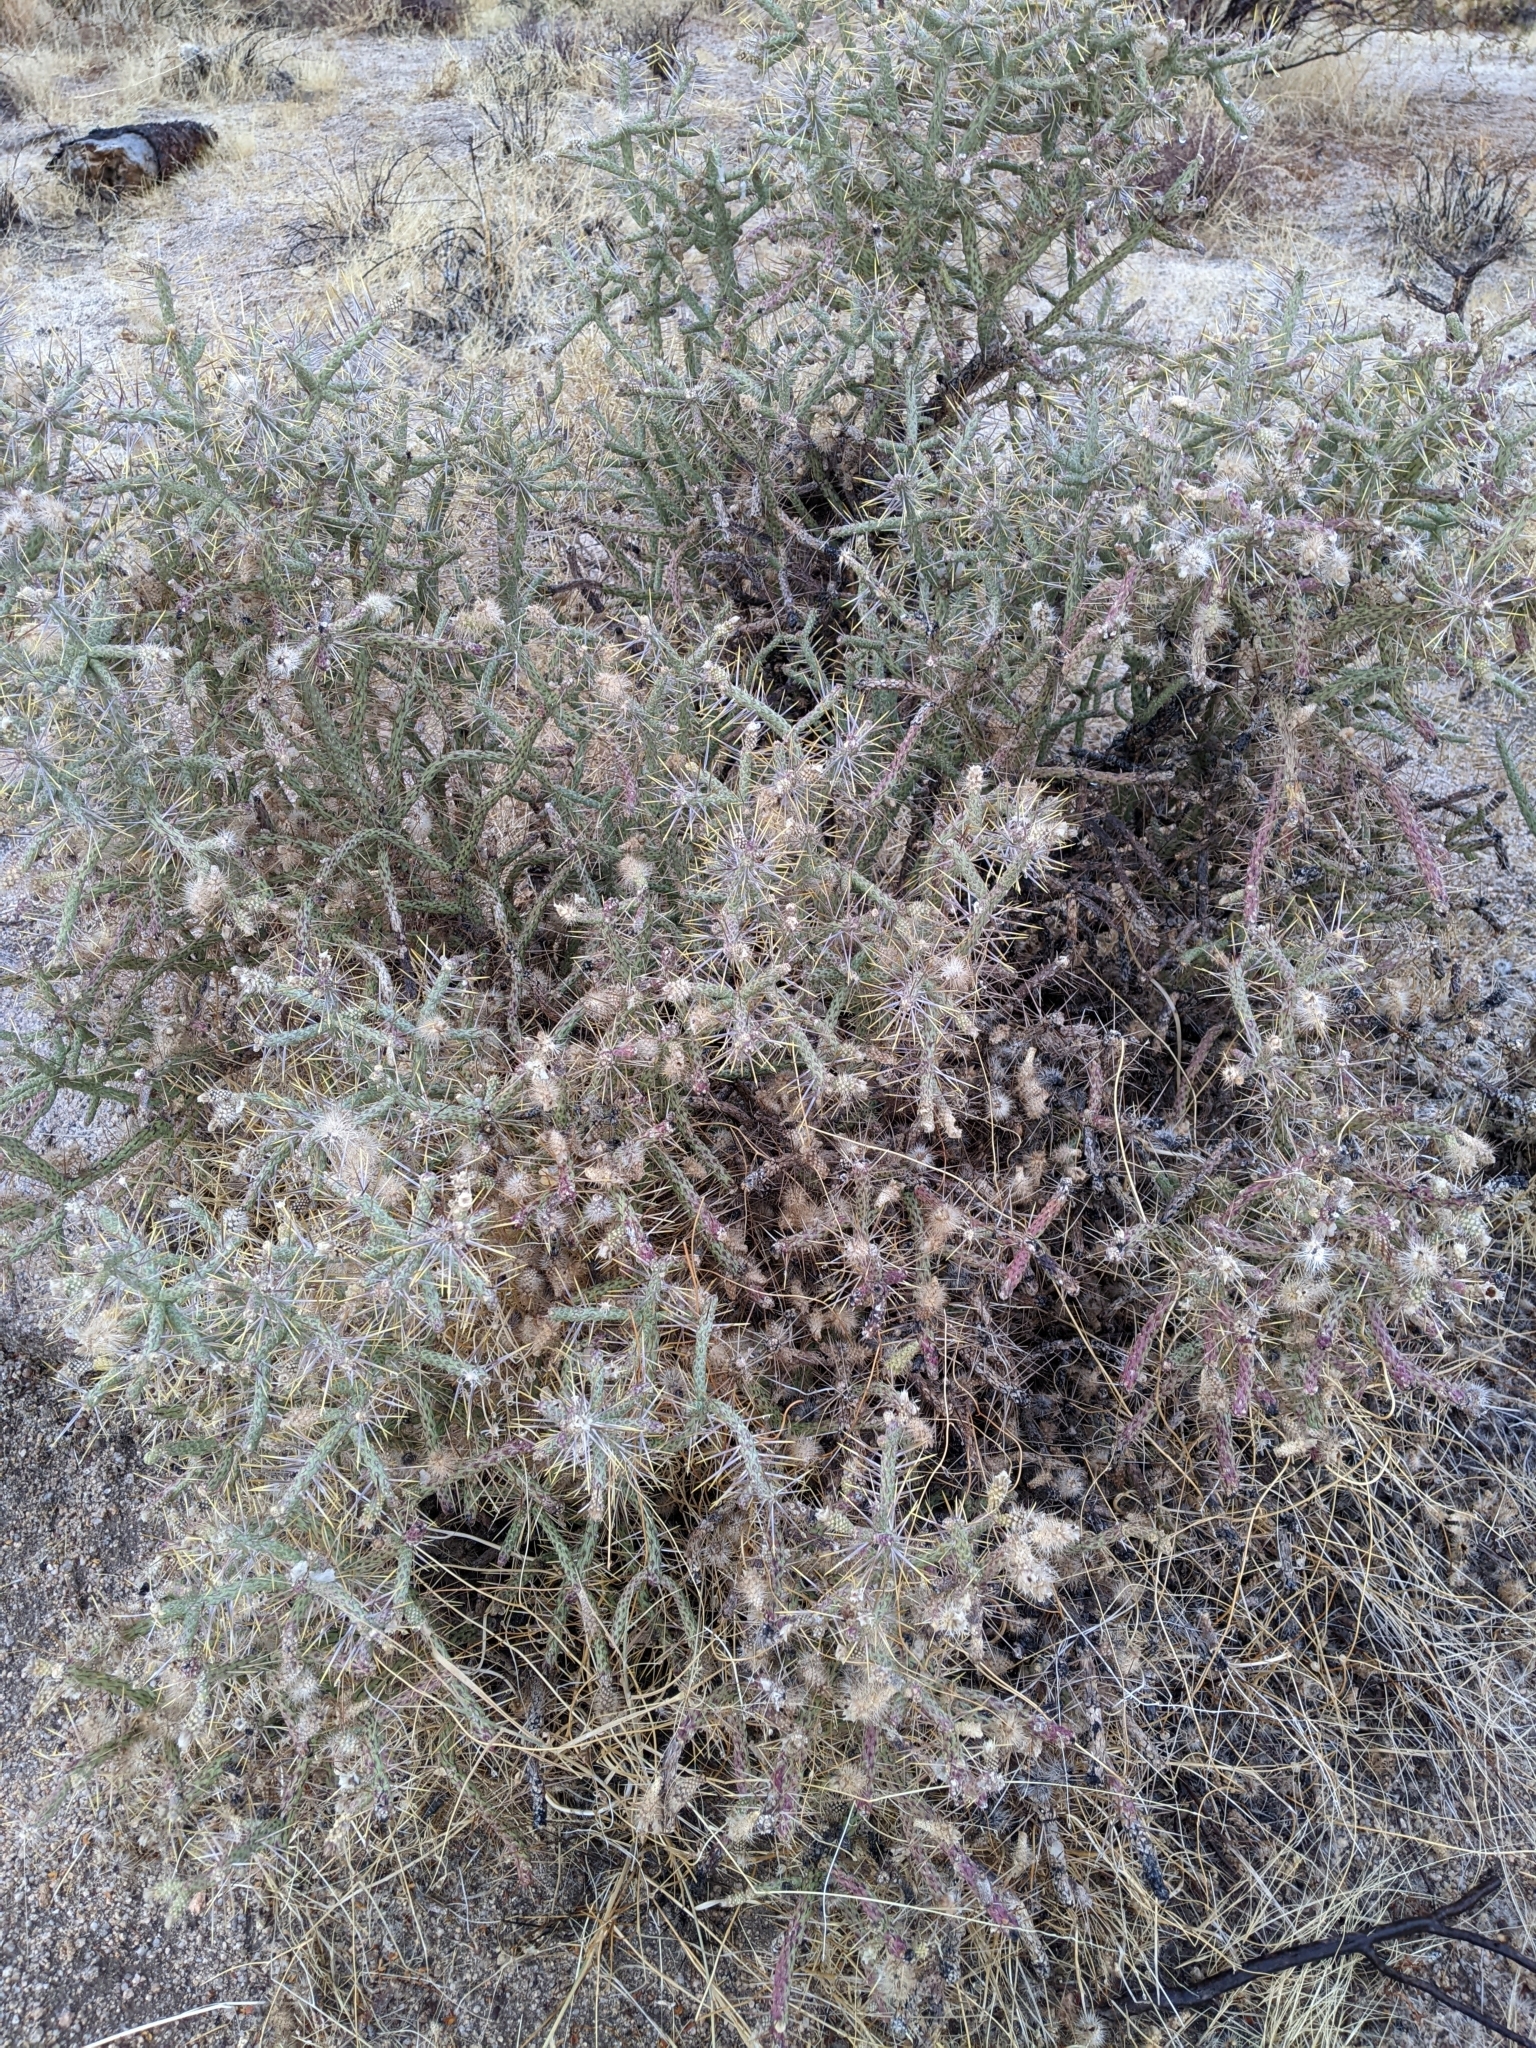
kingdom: Plantae
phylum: Tracheophyta
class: Magnoliopsida
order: Caryophyllales
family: Cactaceae
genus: Cylindropuntia
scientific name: Cylindropuntia ramosissima
